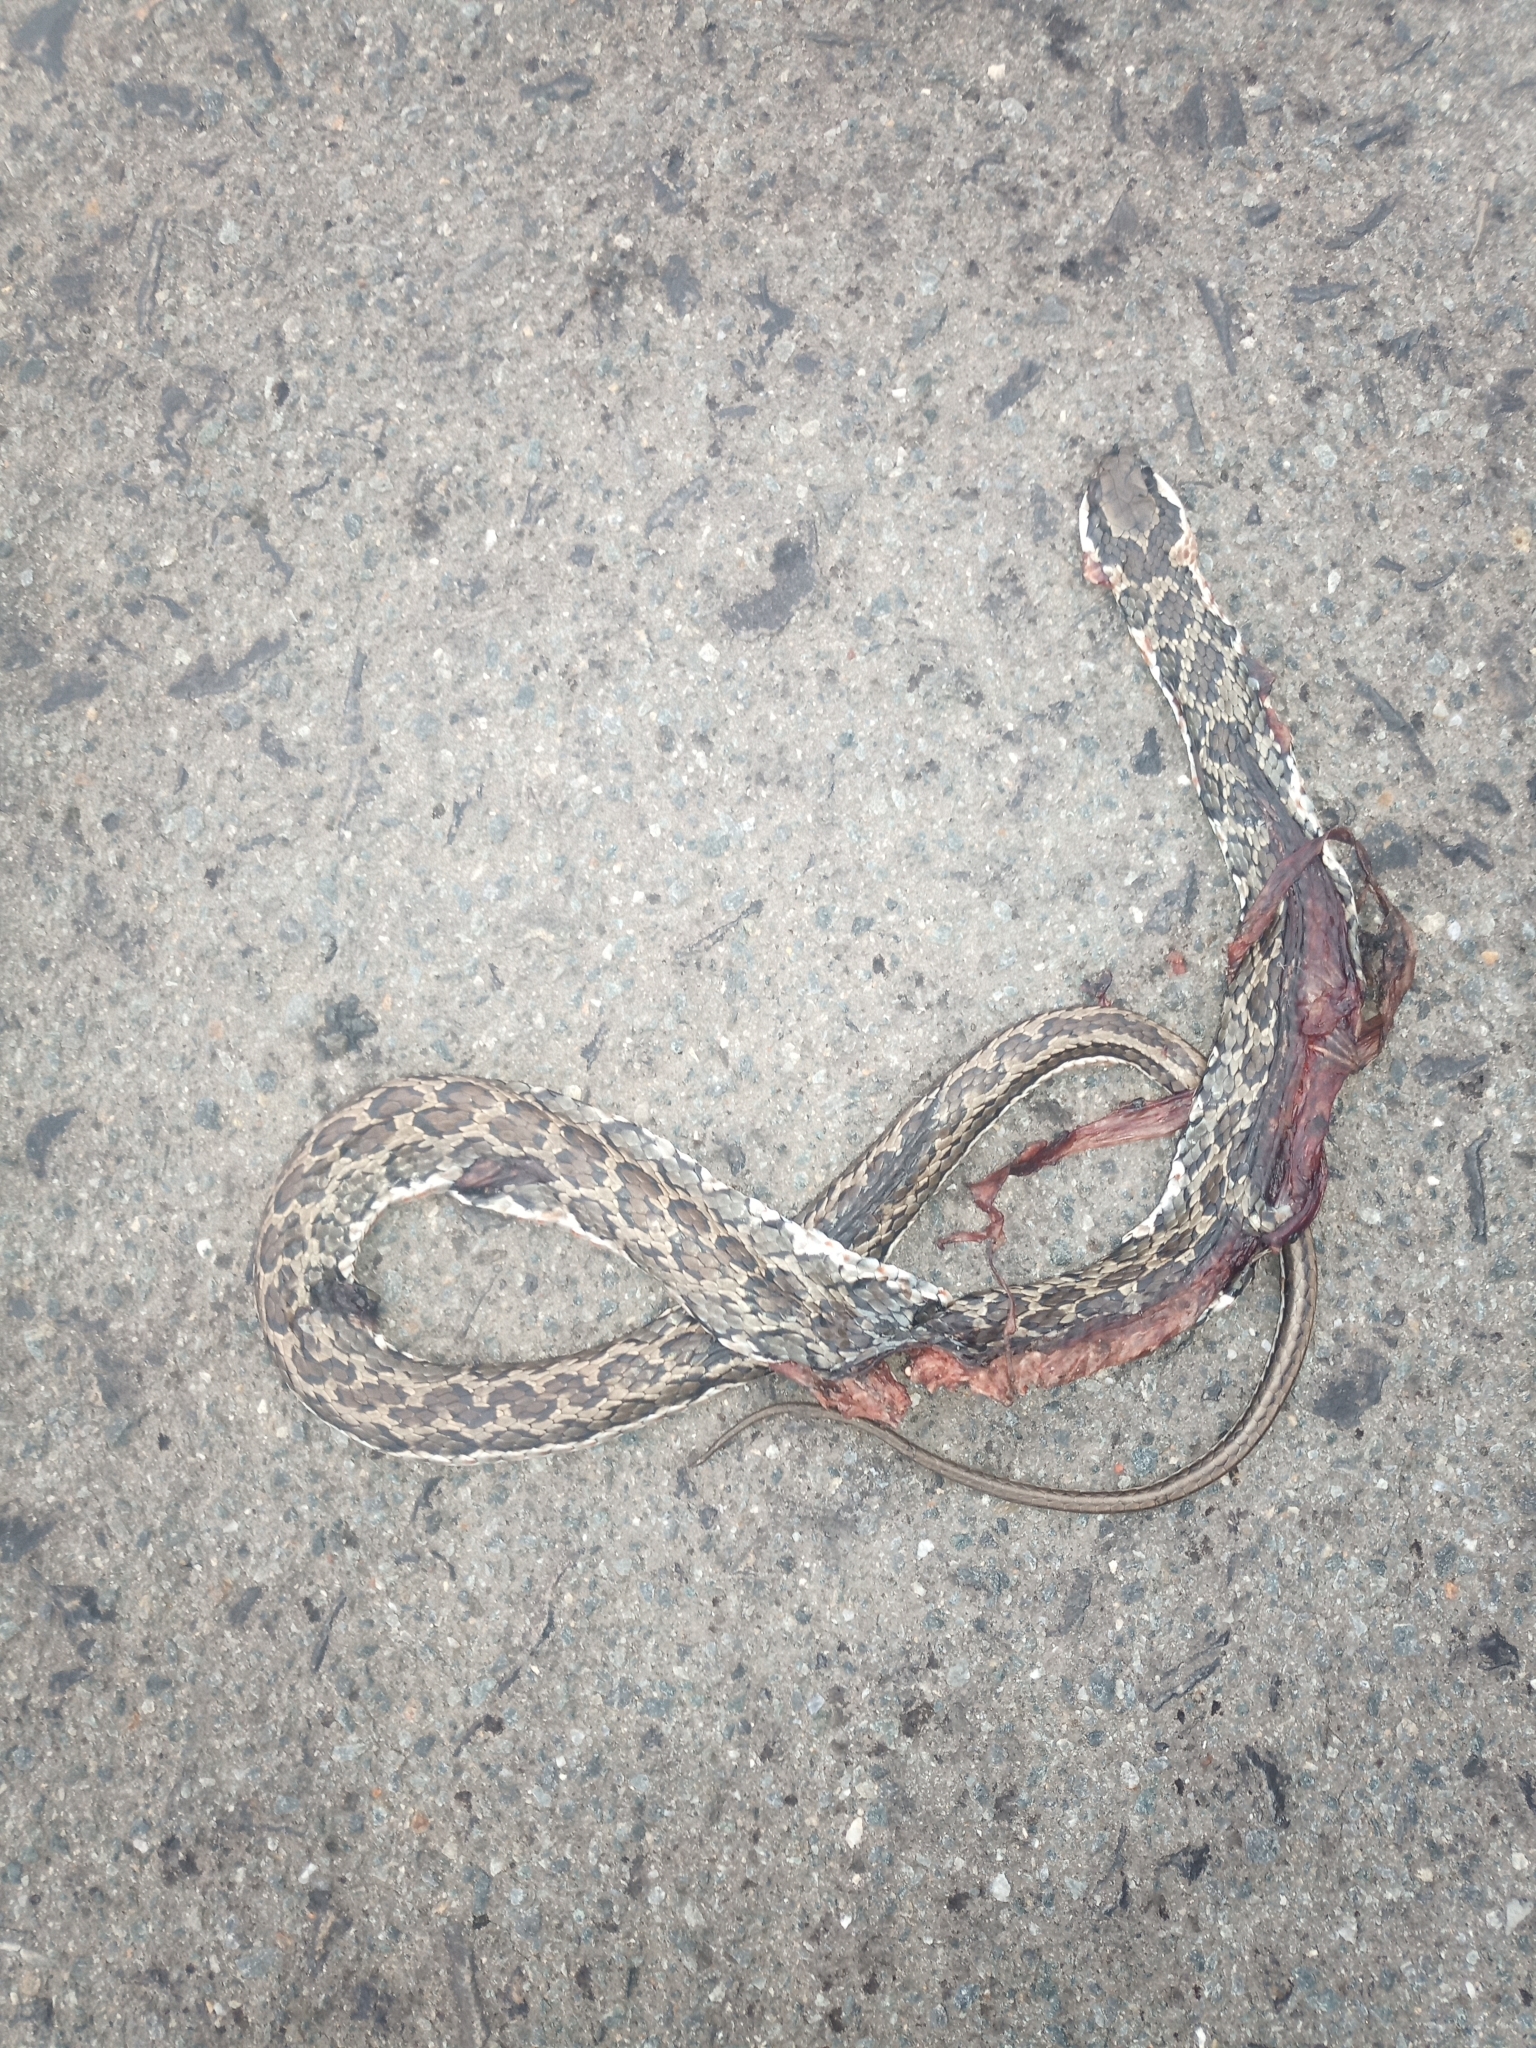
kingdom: Animalia
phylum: Chordata
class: Squamata
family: Psammophiidae
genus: Psammophylax
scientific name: Psammophylax rhombeatus
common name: Rhombic skaapsteker
